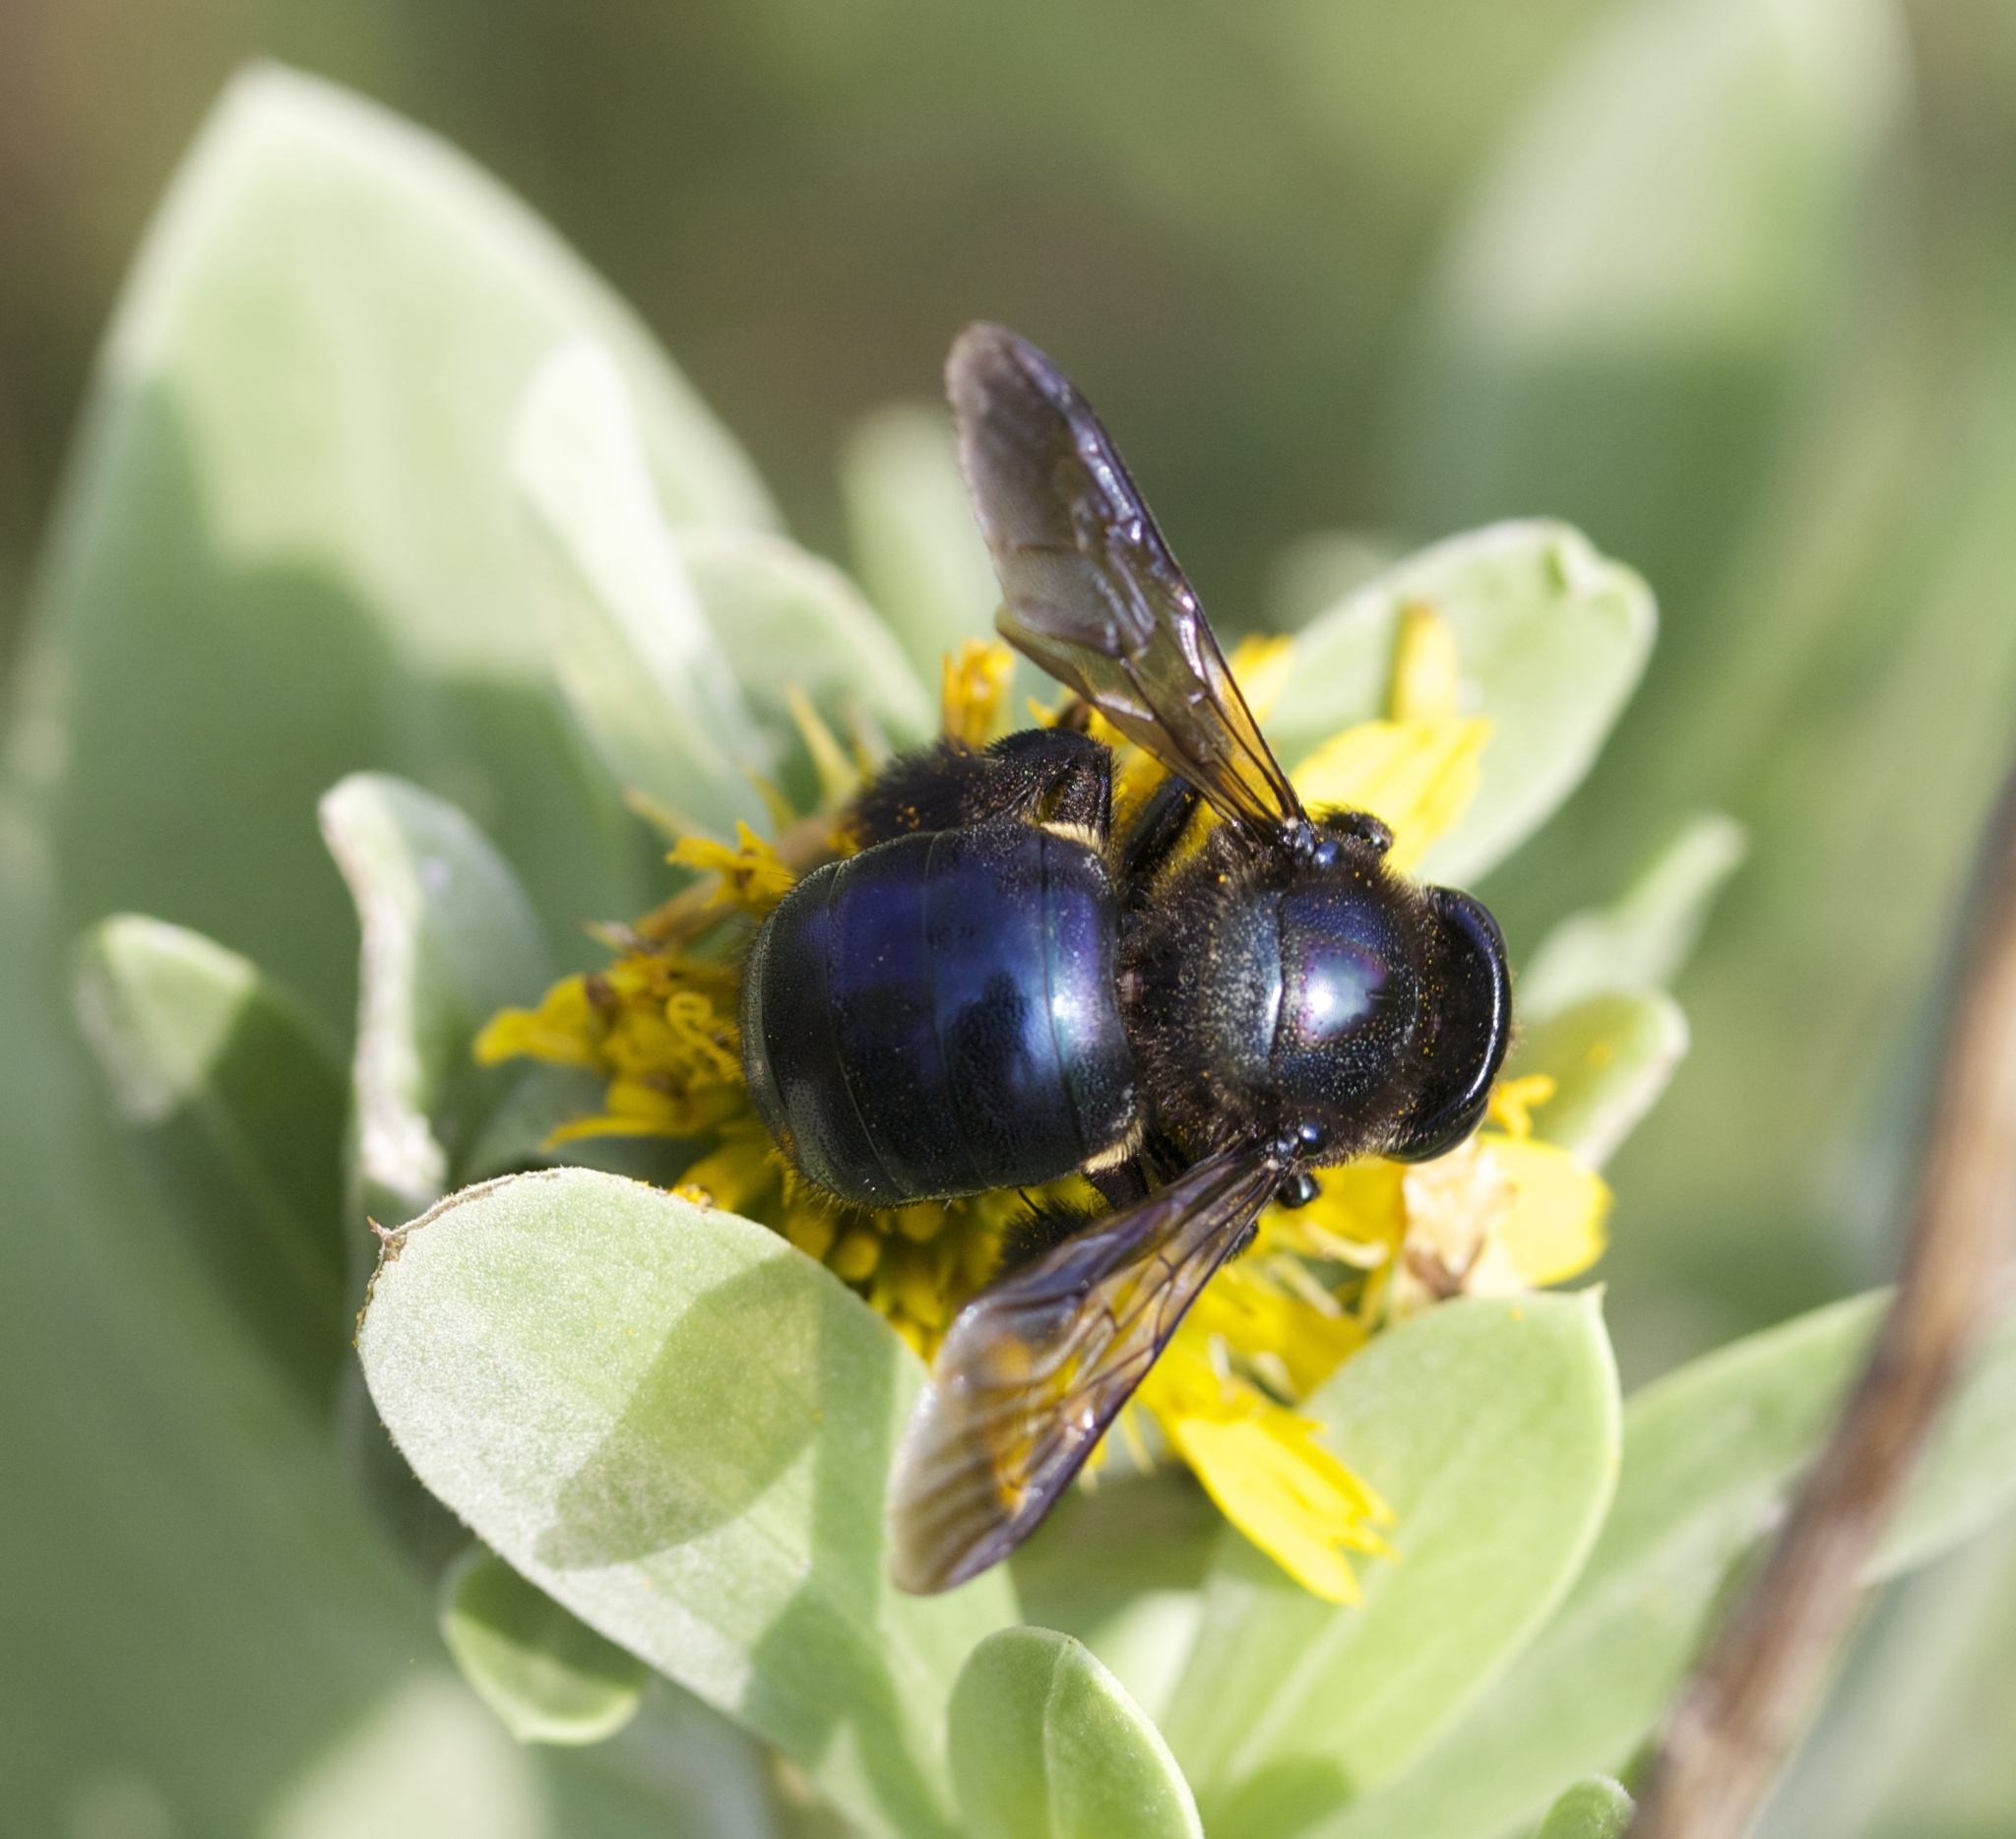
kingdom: Animalia
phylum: Arthropoda
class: Insecta
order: Hymenoptera
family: Apidae
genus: Xylocopa
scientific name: Xylocopa micans
